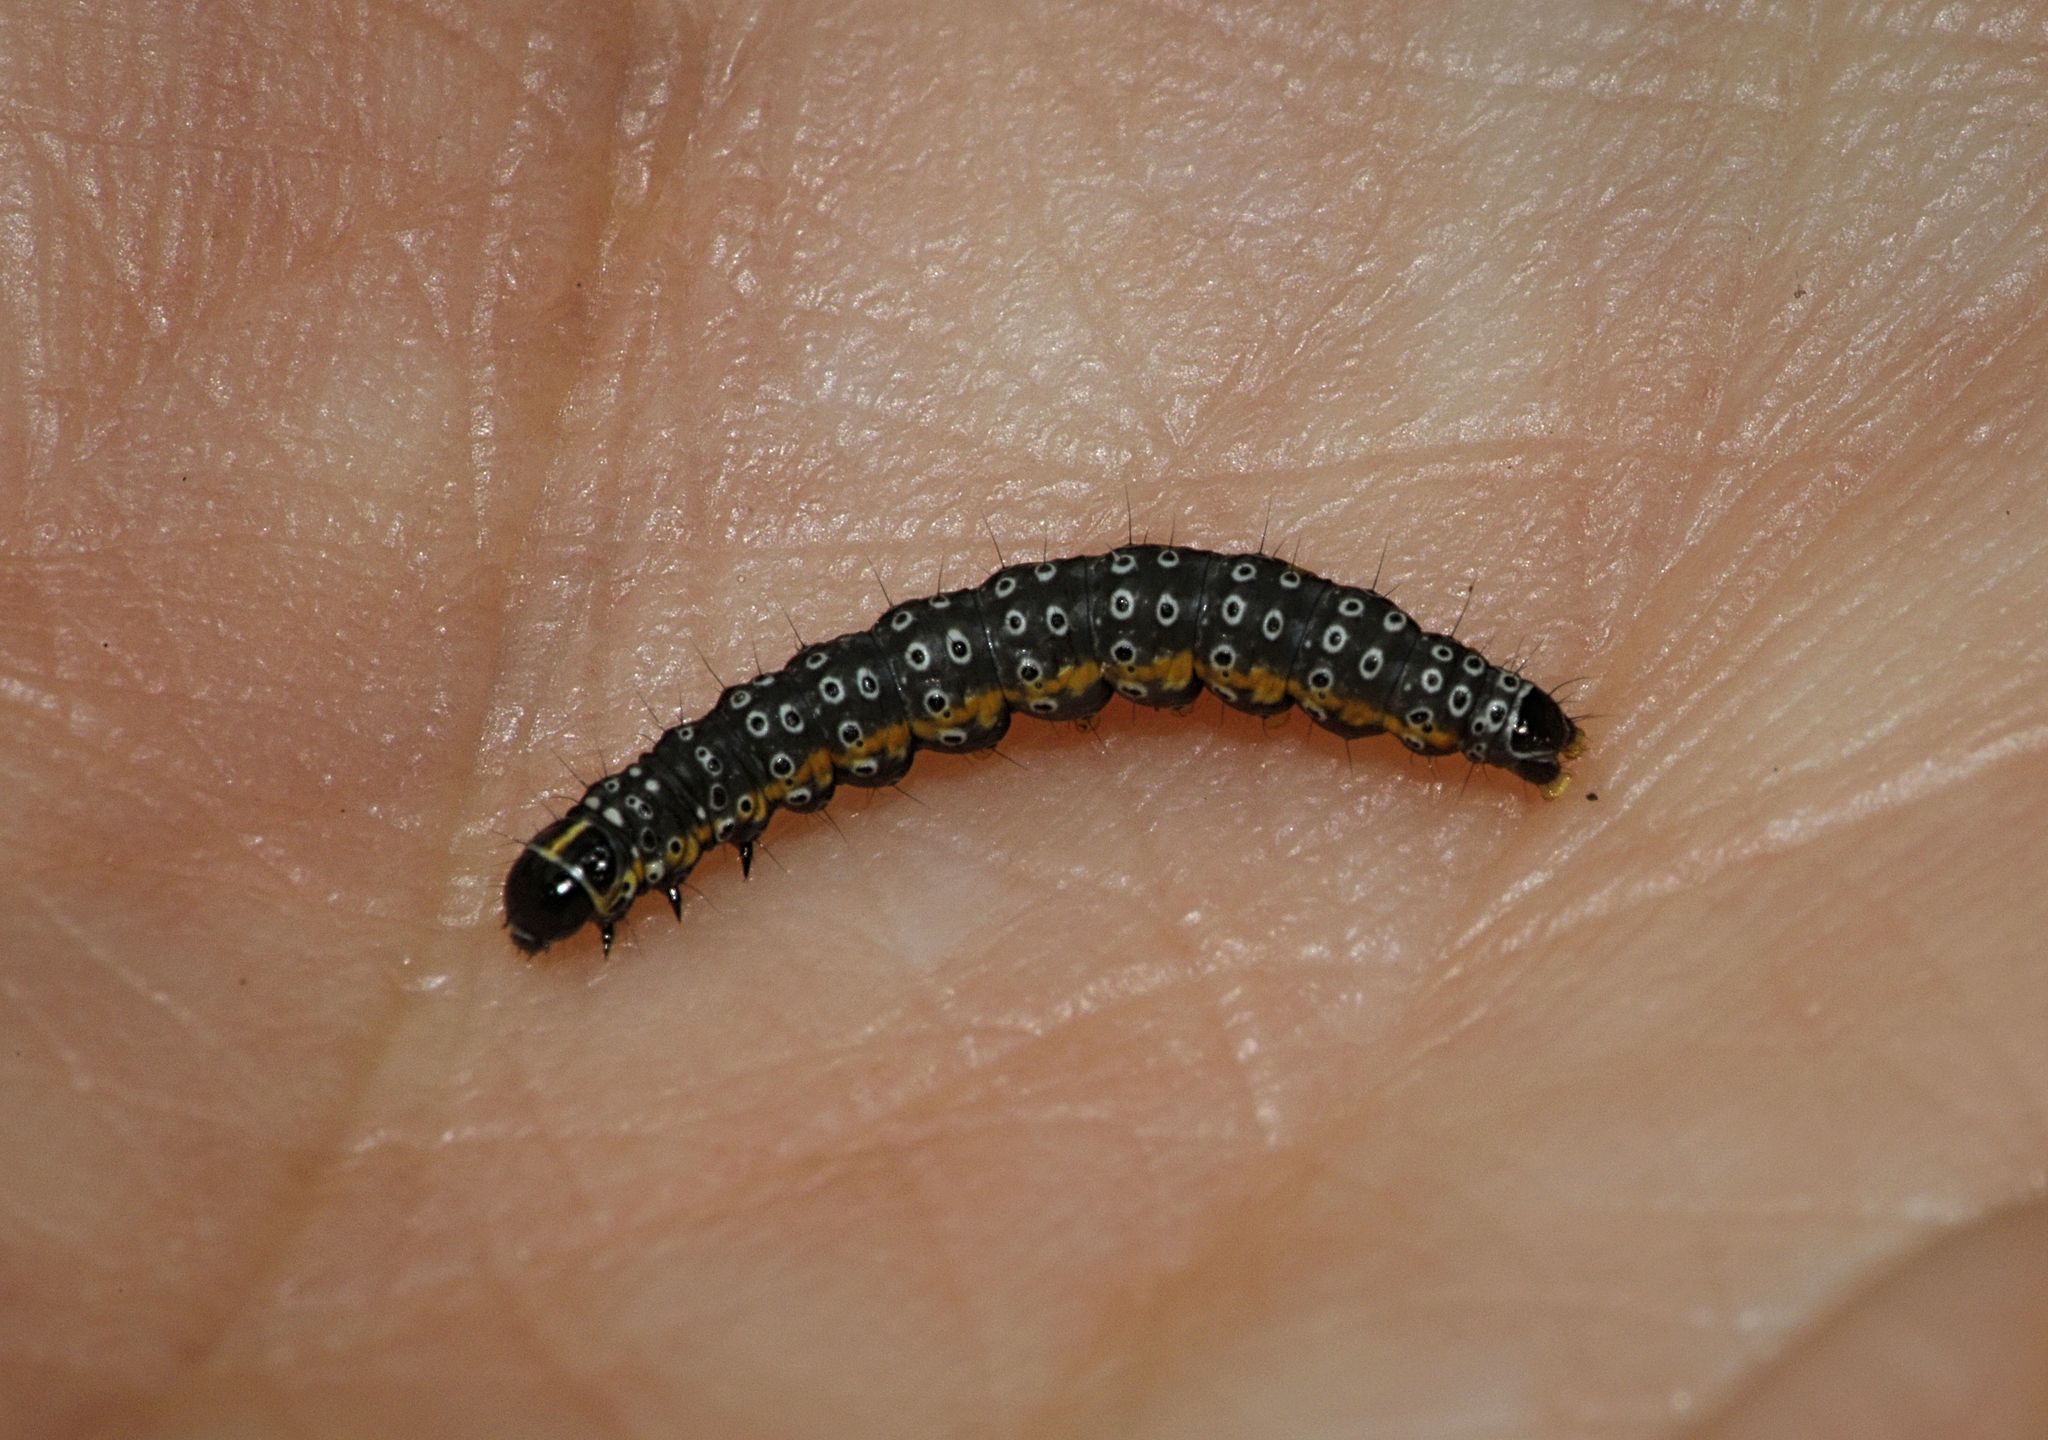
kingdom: Animalia
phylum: Arthropoda
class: Insecta
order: Lepidoptera
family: Depressariidae
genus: Depressaria
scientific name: Depressaria apiella
